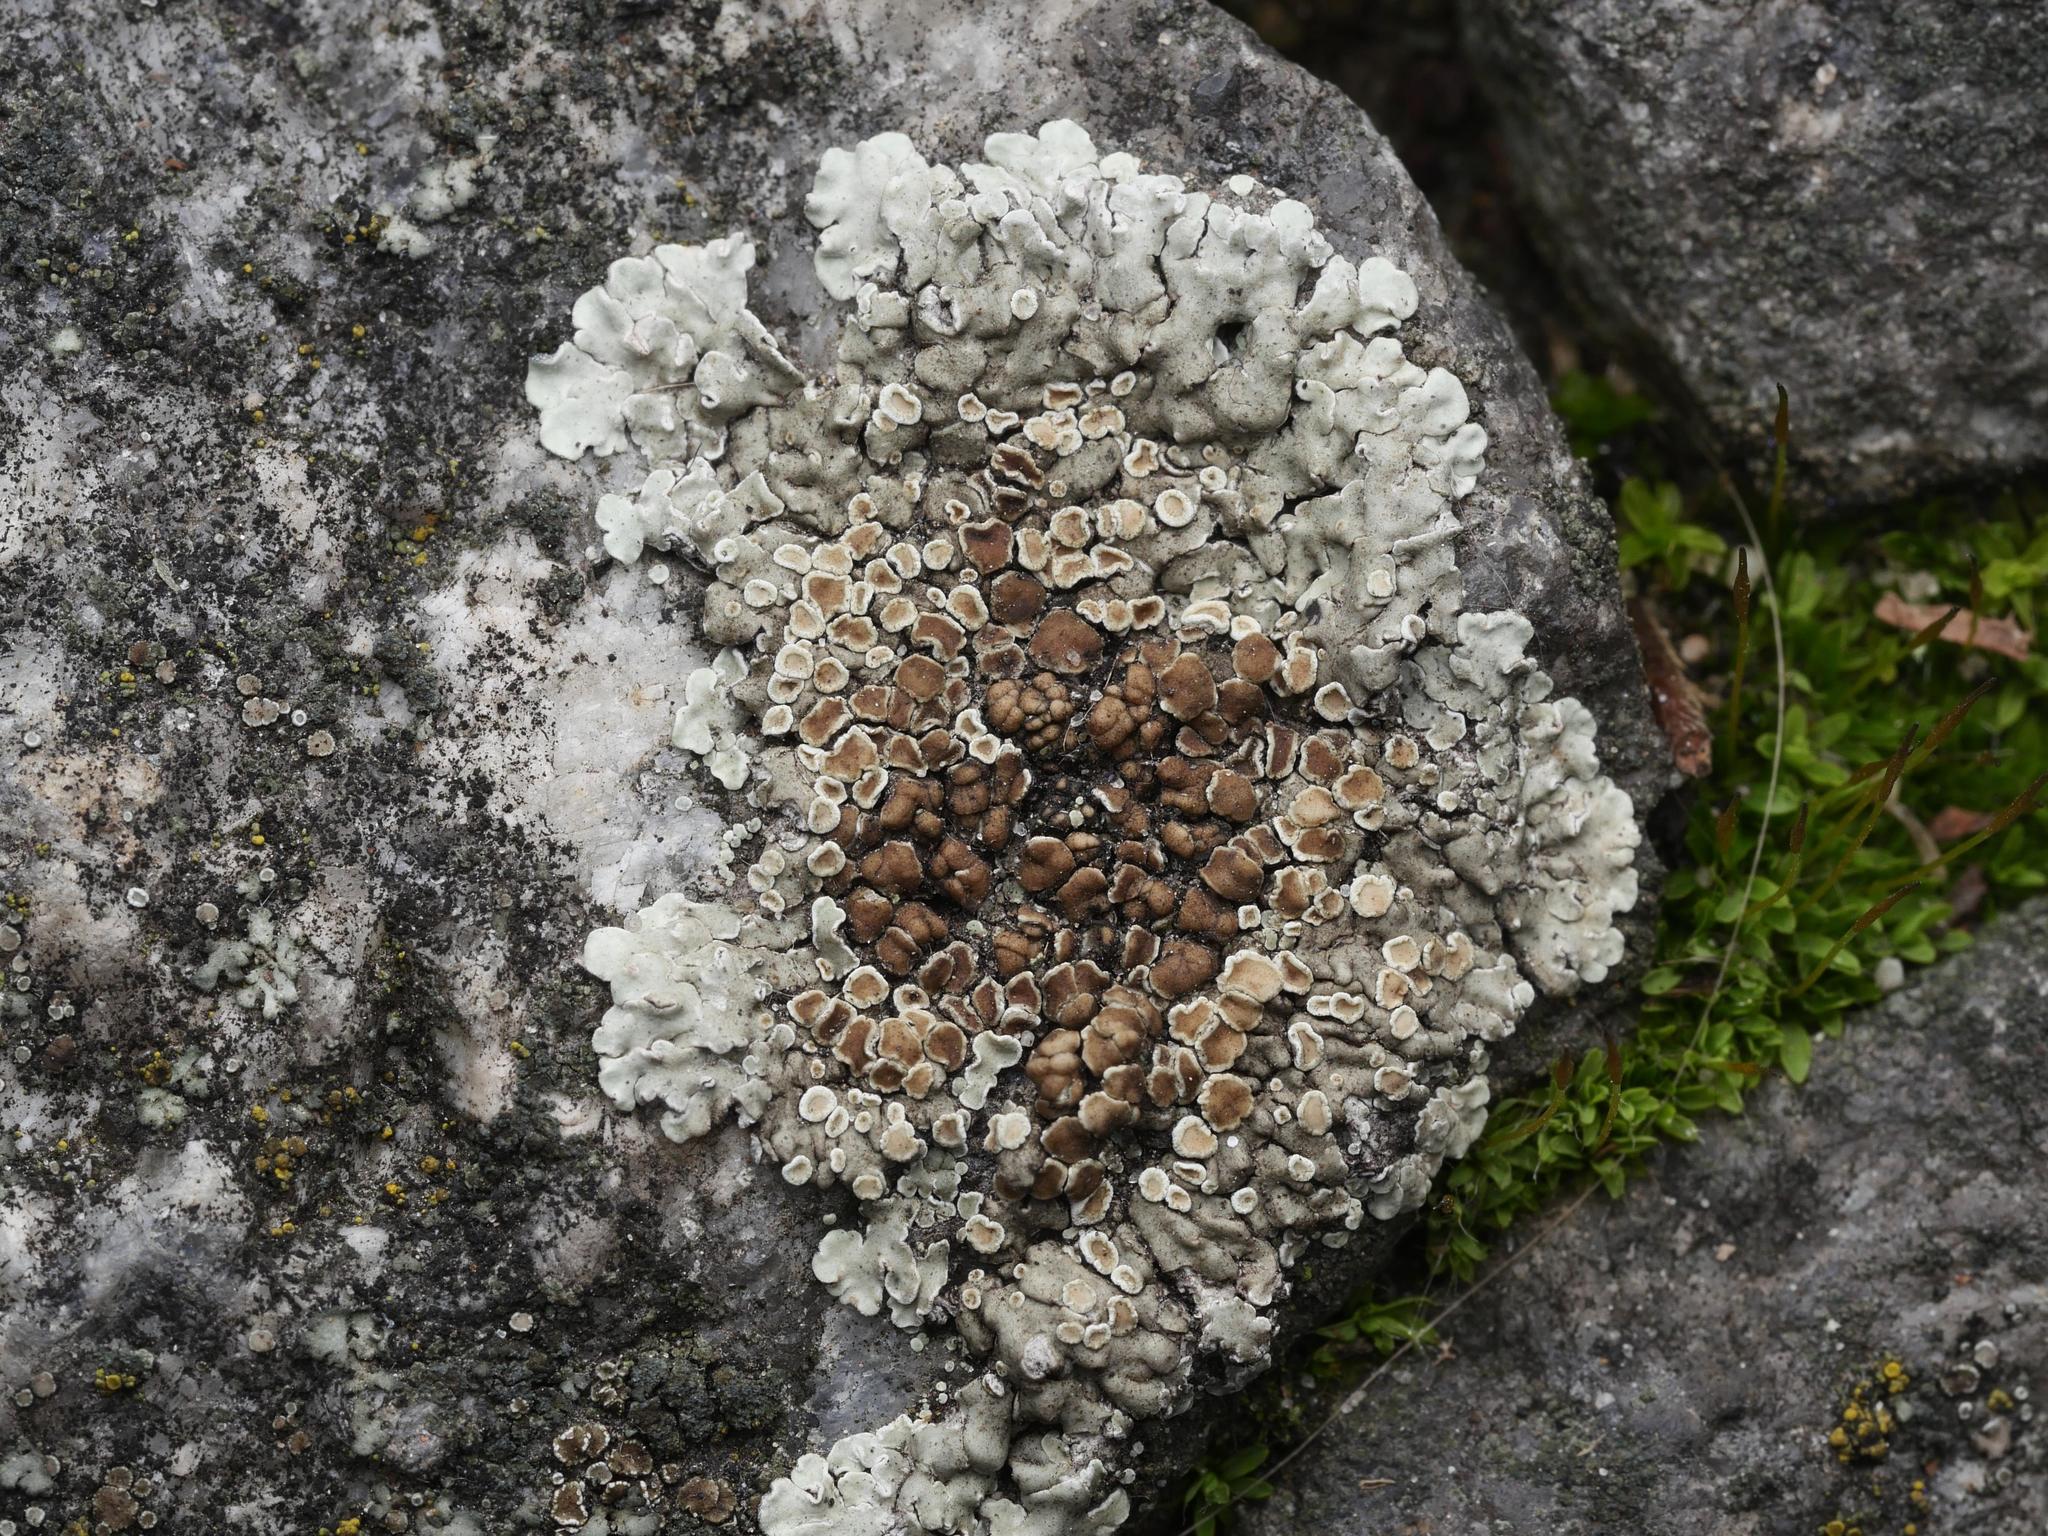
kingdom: Fungi
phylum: Ascomycota
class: Lecanoromycetes
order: Lecanorales
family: Lecanoraceae
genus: Protoparmeliopsis
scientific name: Protoparmeliopsis muralis
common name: Stonewall rim lichen
